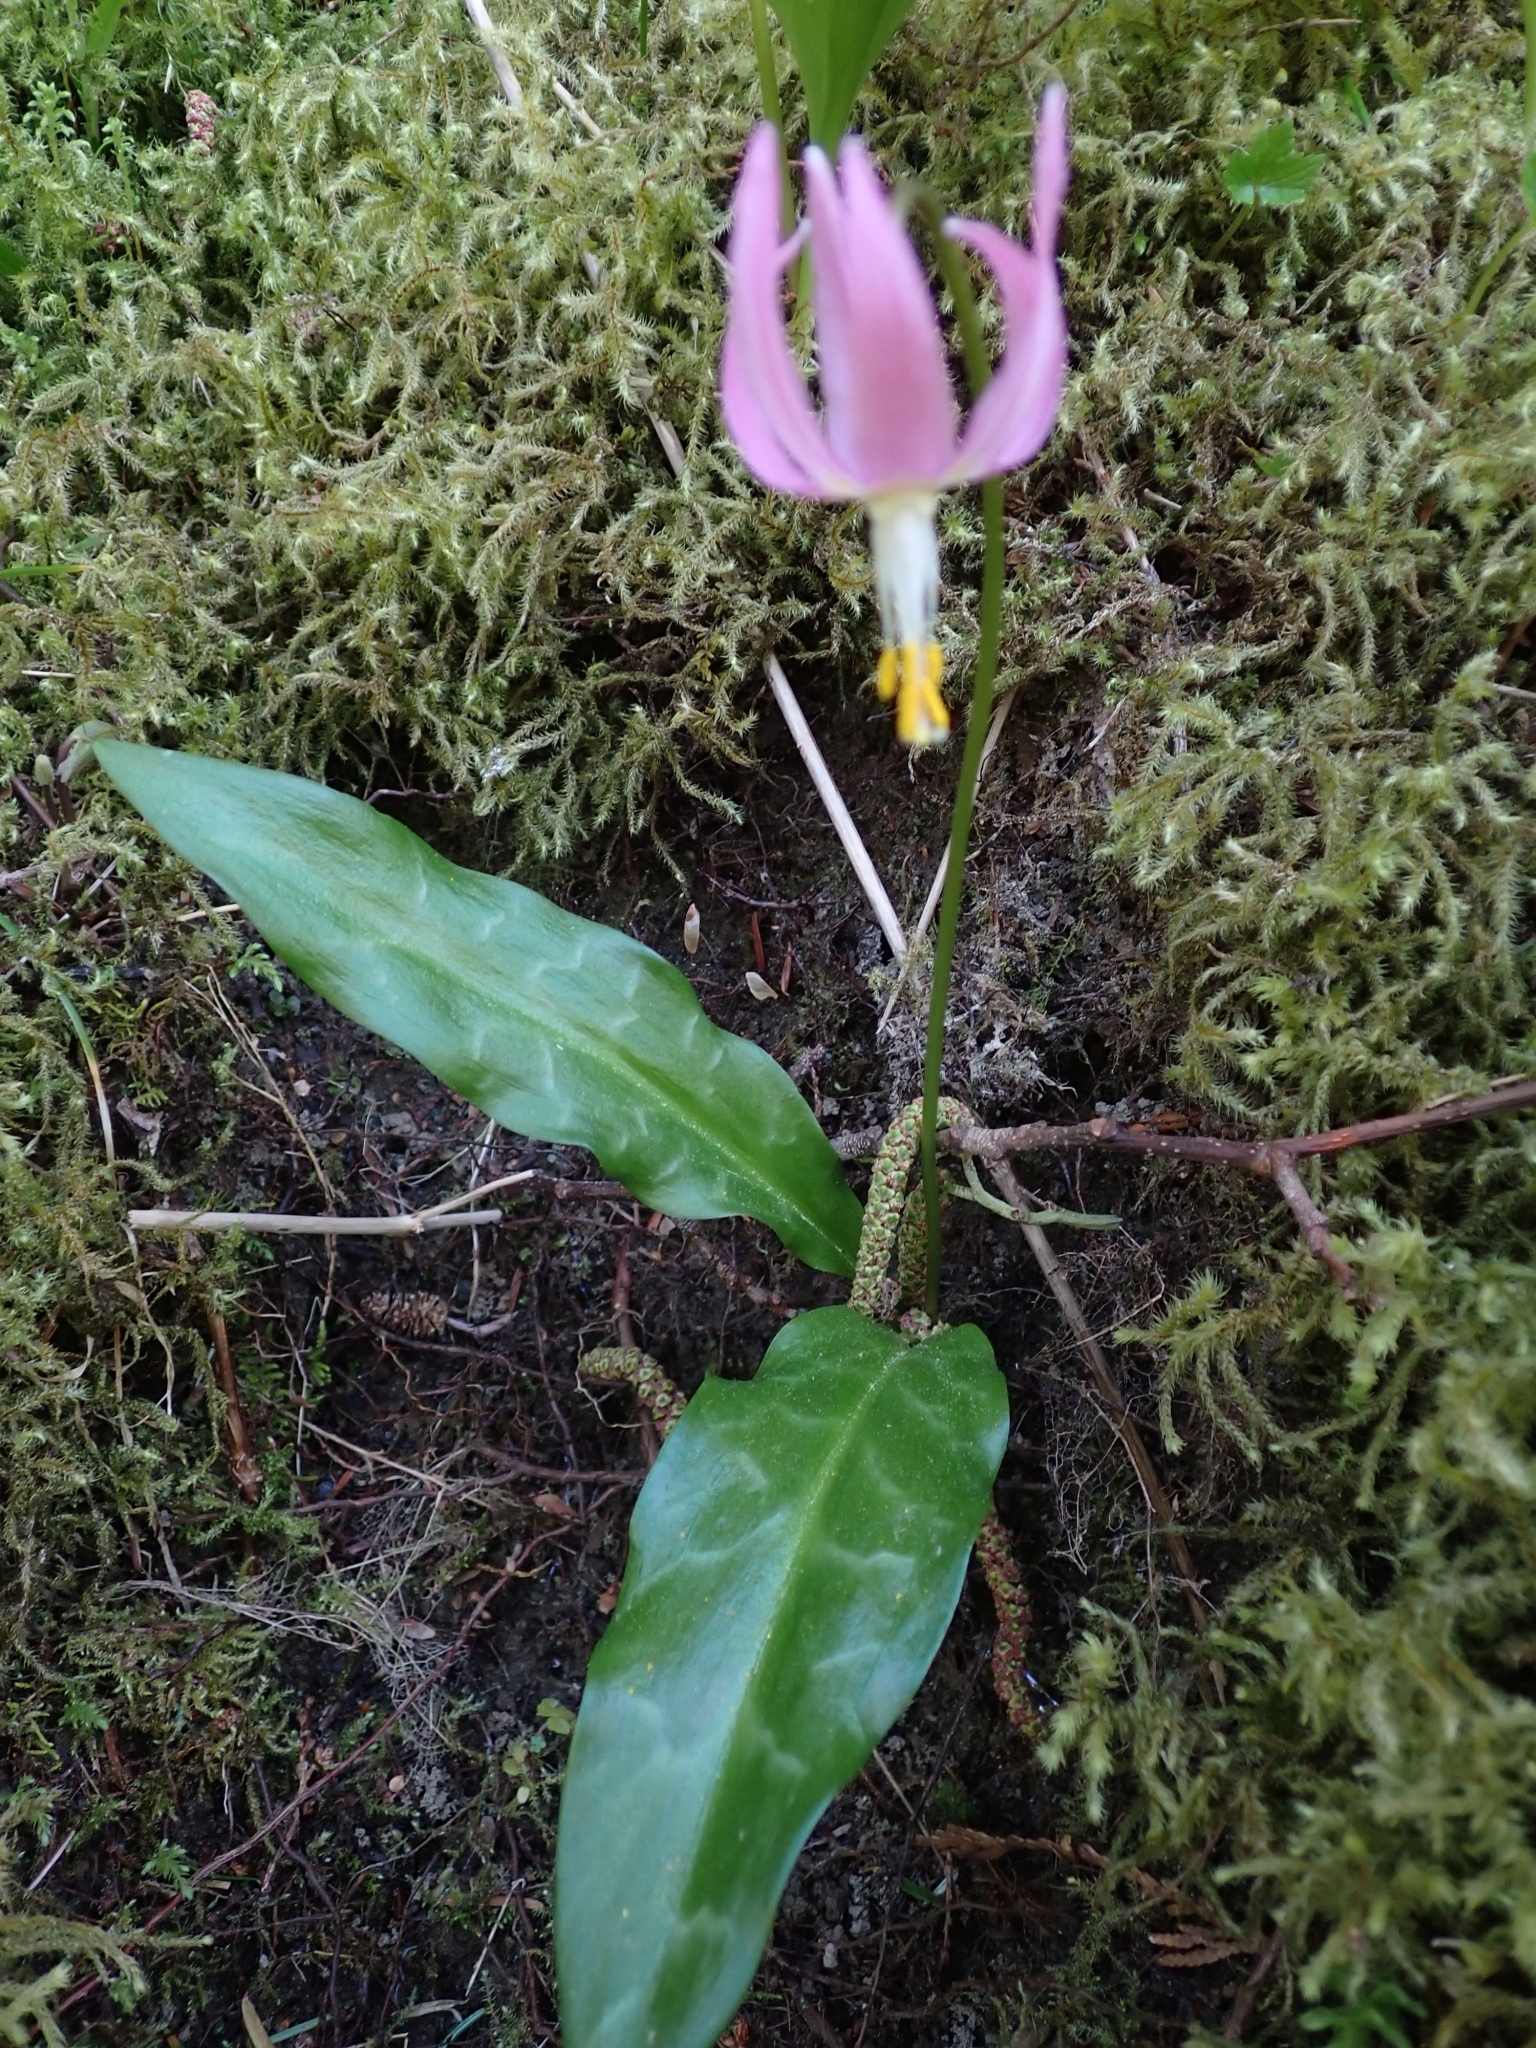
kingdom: Plantae
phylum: Tracheophyta
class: Liliopsida
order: Liliales
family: Liliaceae
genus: Erythronium
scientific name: Erythronium revolutum
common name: Pink fawn-lily
